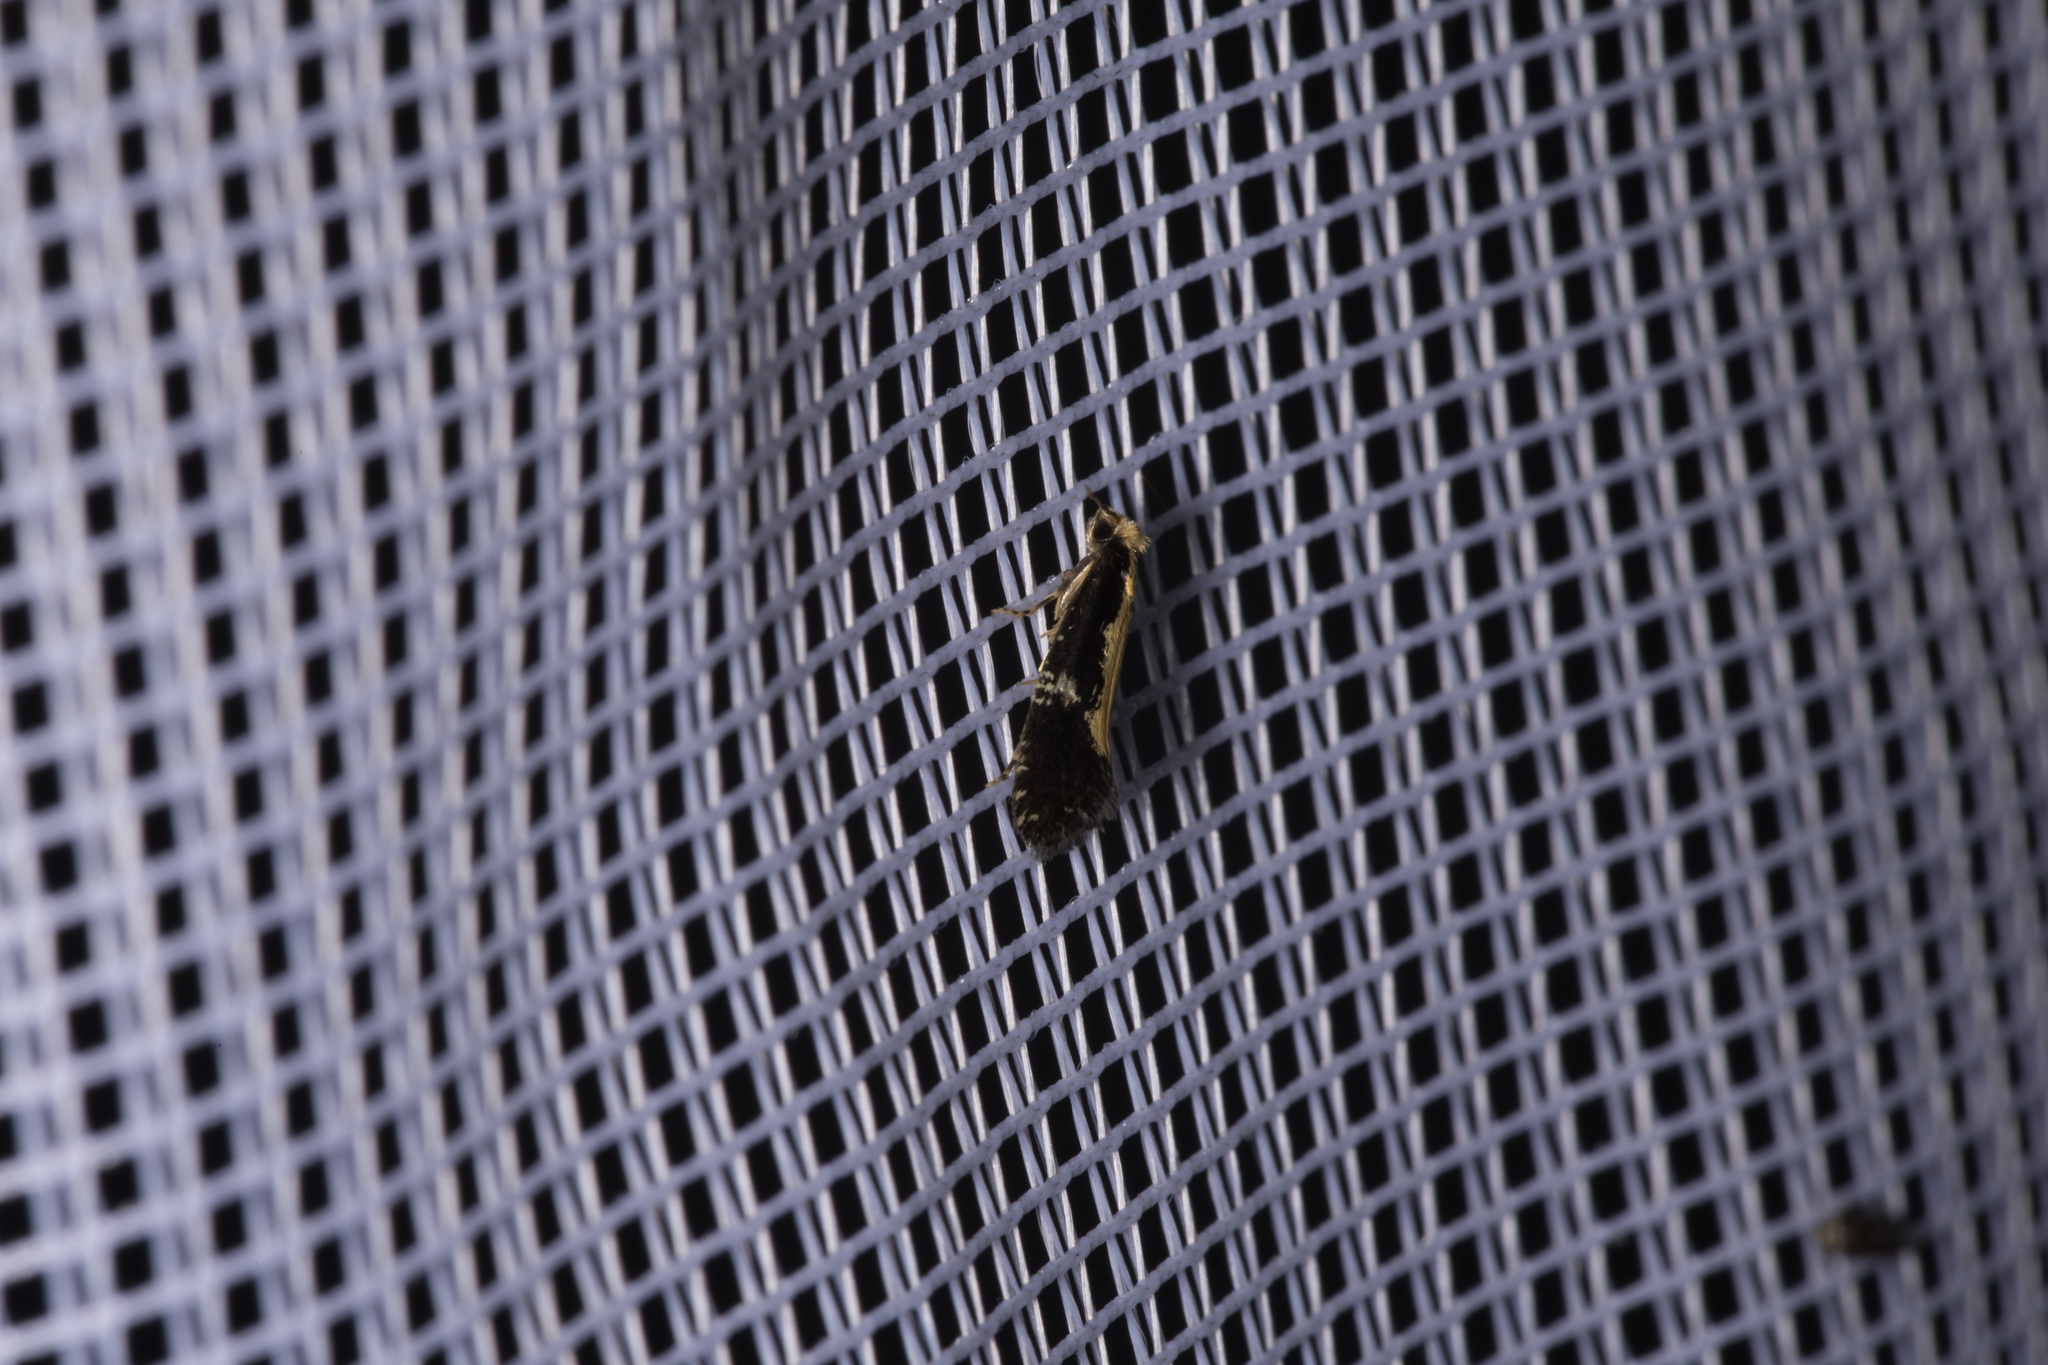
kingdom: Animalia
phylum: Arthropoda
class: Insecta
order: Lepidoptera
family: Tineidae
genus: Monopis
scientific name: Monopis obviella
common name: Tineid moth
